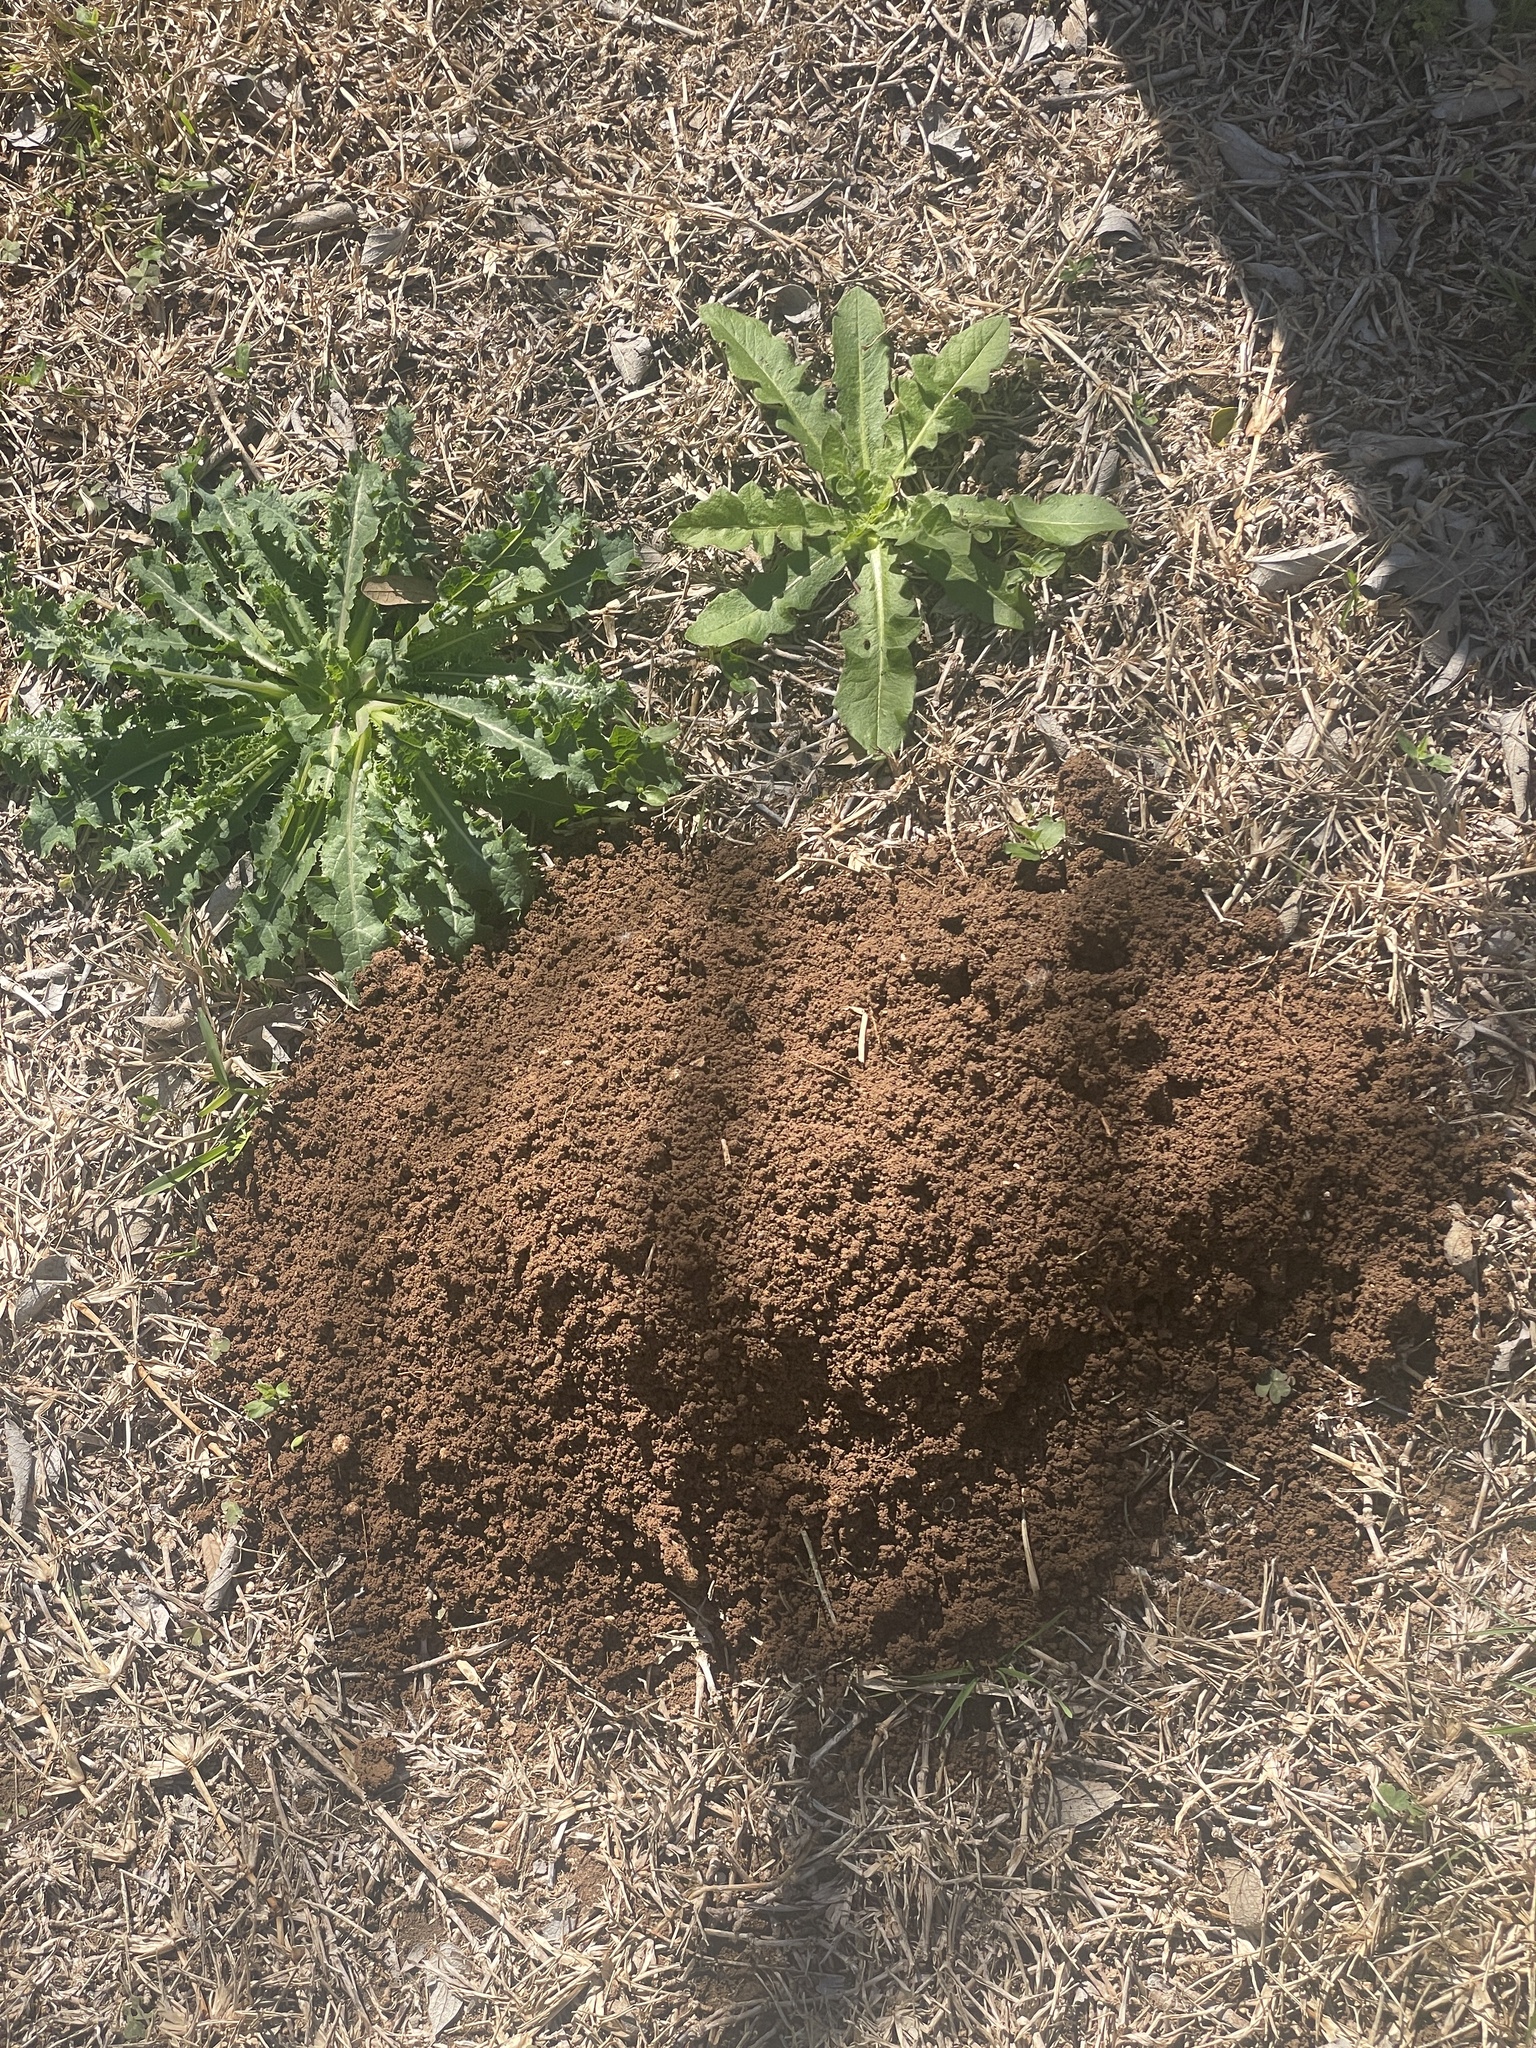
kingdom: Animalia
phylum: Chordata
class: Mammalia
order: Rodentia
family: Geomyidae
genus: Geomys
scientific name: Geomys attwateri
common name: Attwater's pocket gopher
